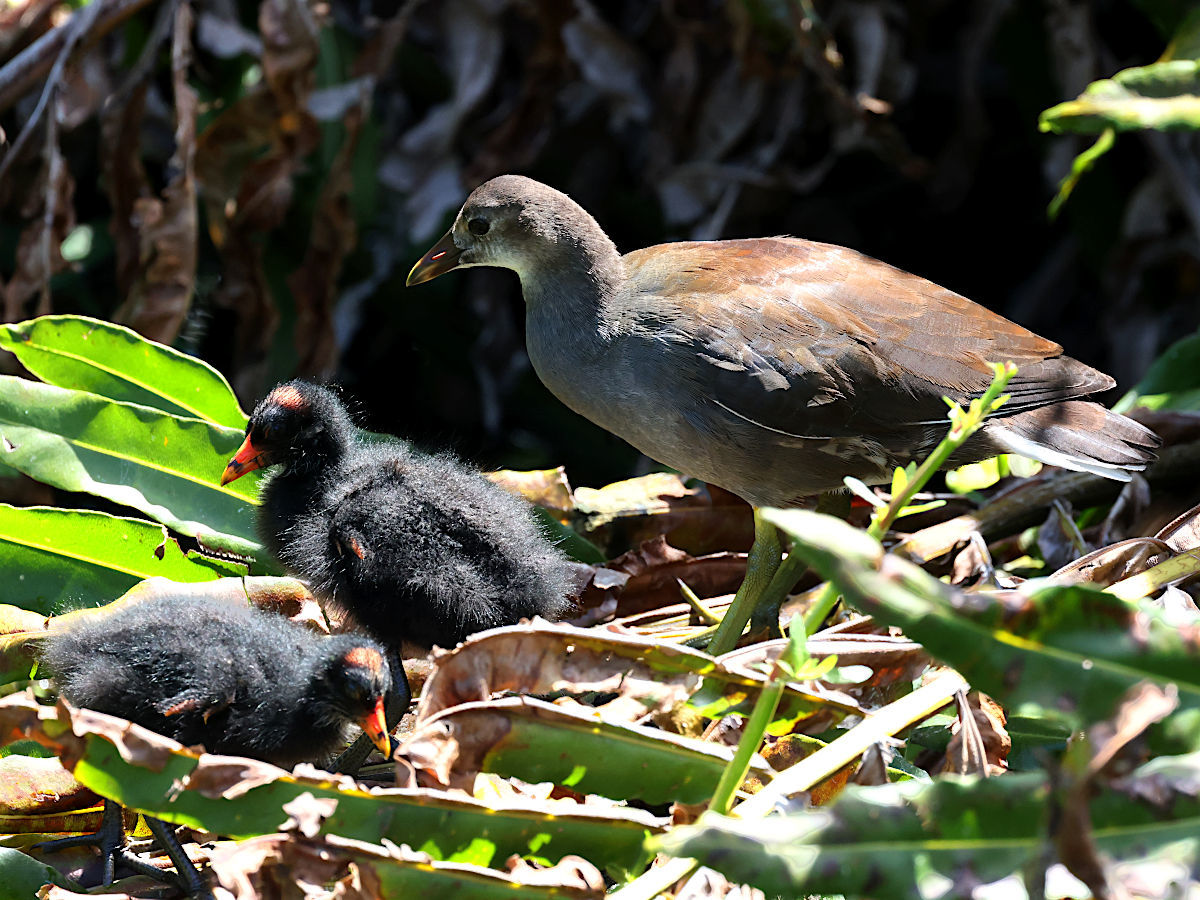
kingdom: Animalia
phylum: Chordata
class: Aves
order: Gruiformes
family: Rallidae
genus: Gallinula
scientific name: Gallinula chloropus
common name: Common moorhen
